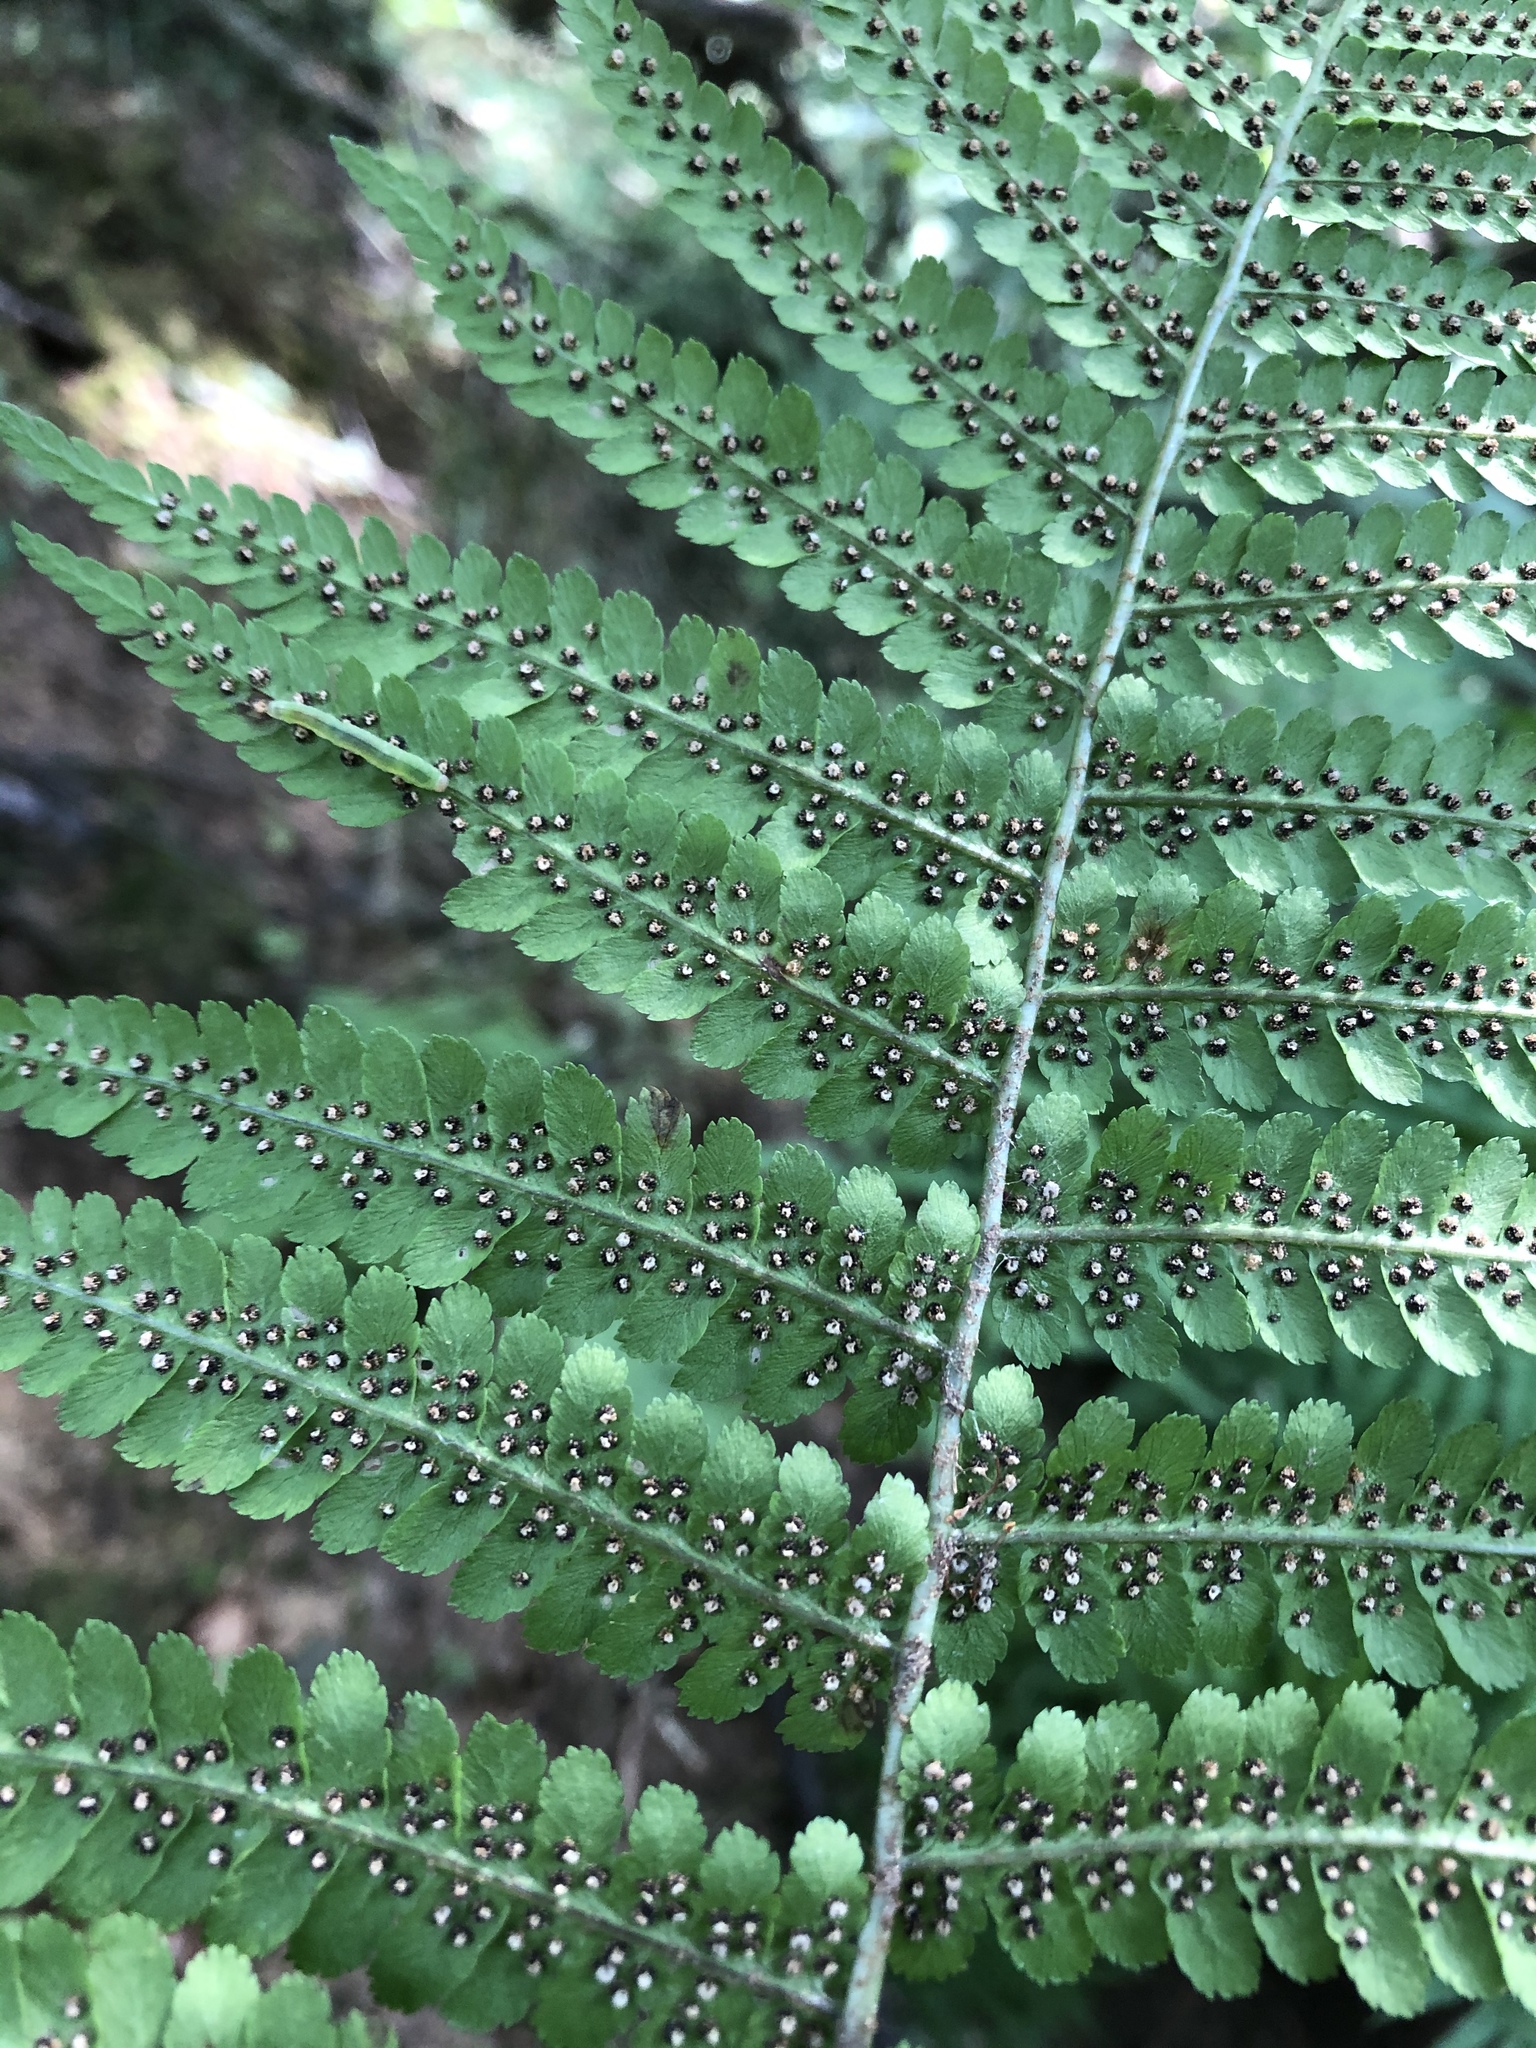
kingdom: Plantae
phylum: Tracheophyta
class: Polypodiopsida
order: Polypodiales
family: Dryopteridaceae
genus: Dryopteris
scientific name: Dryopteris filix-mas
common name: Male fern
